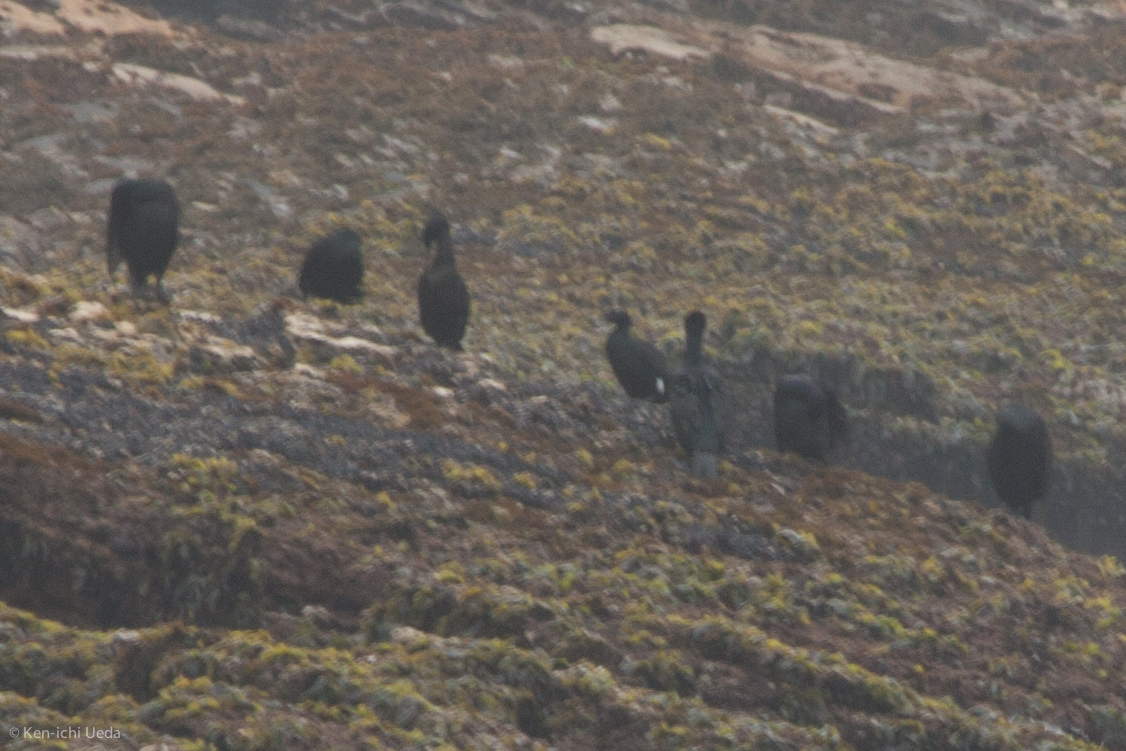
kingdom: Animalia
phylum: Chordata
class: Aves
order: Suliformes
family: Phalacrocoracidae
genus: Phalacrocorax
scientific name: Phalacrocorax pelagicus
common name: Pelagic cormorant
